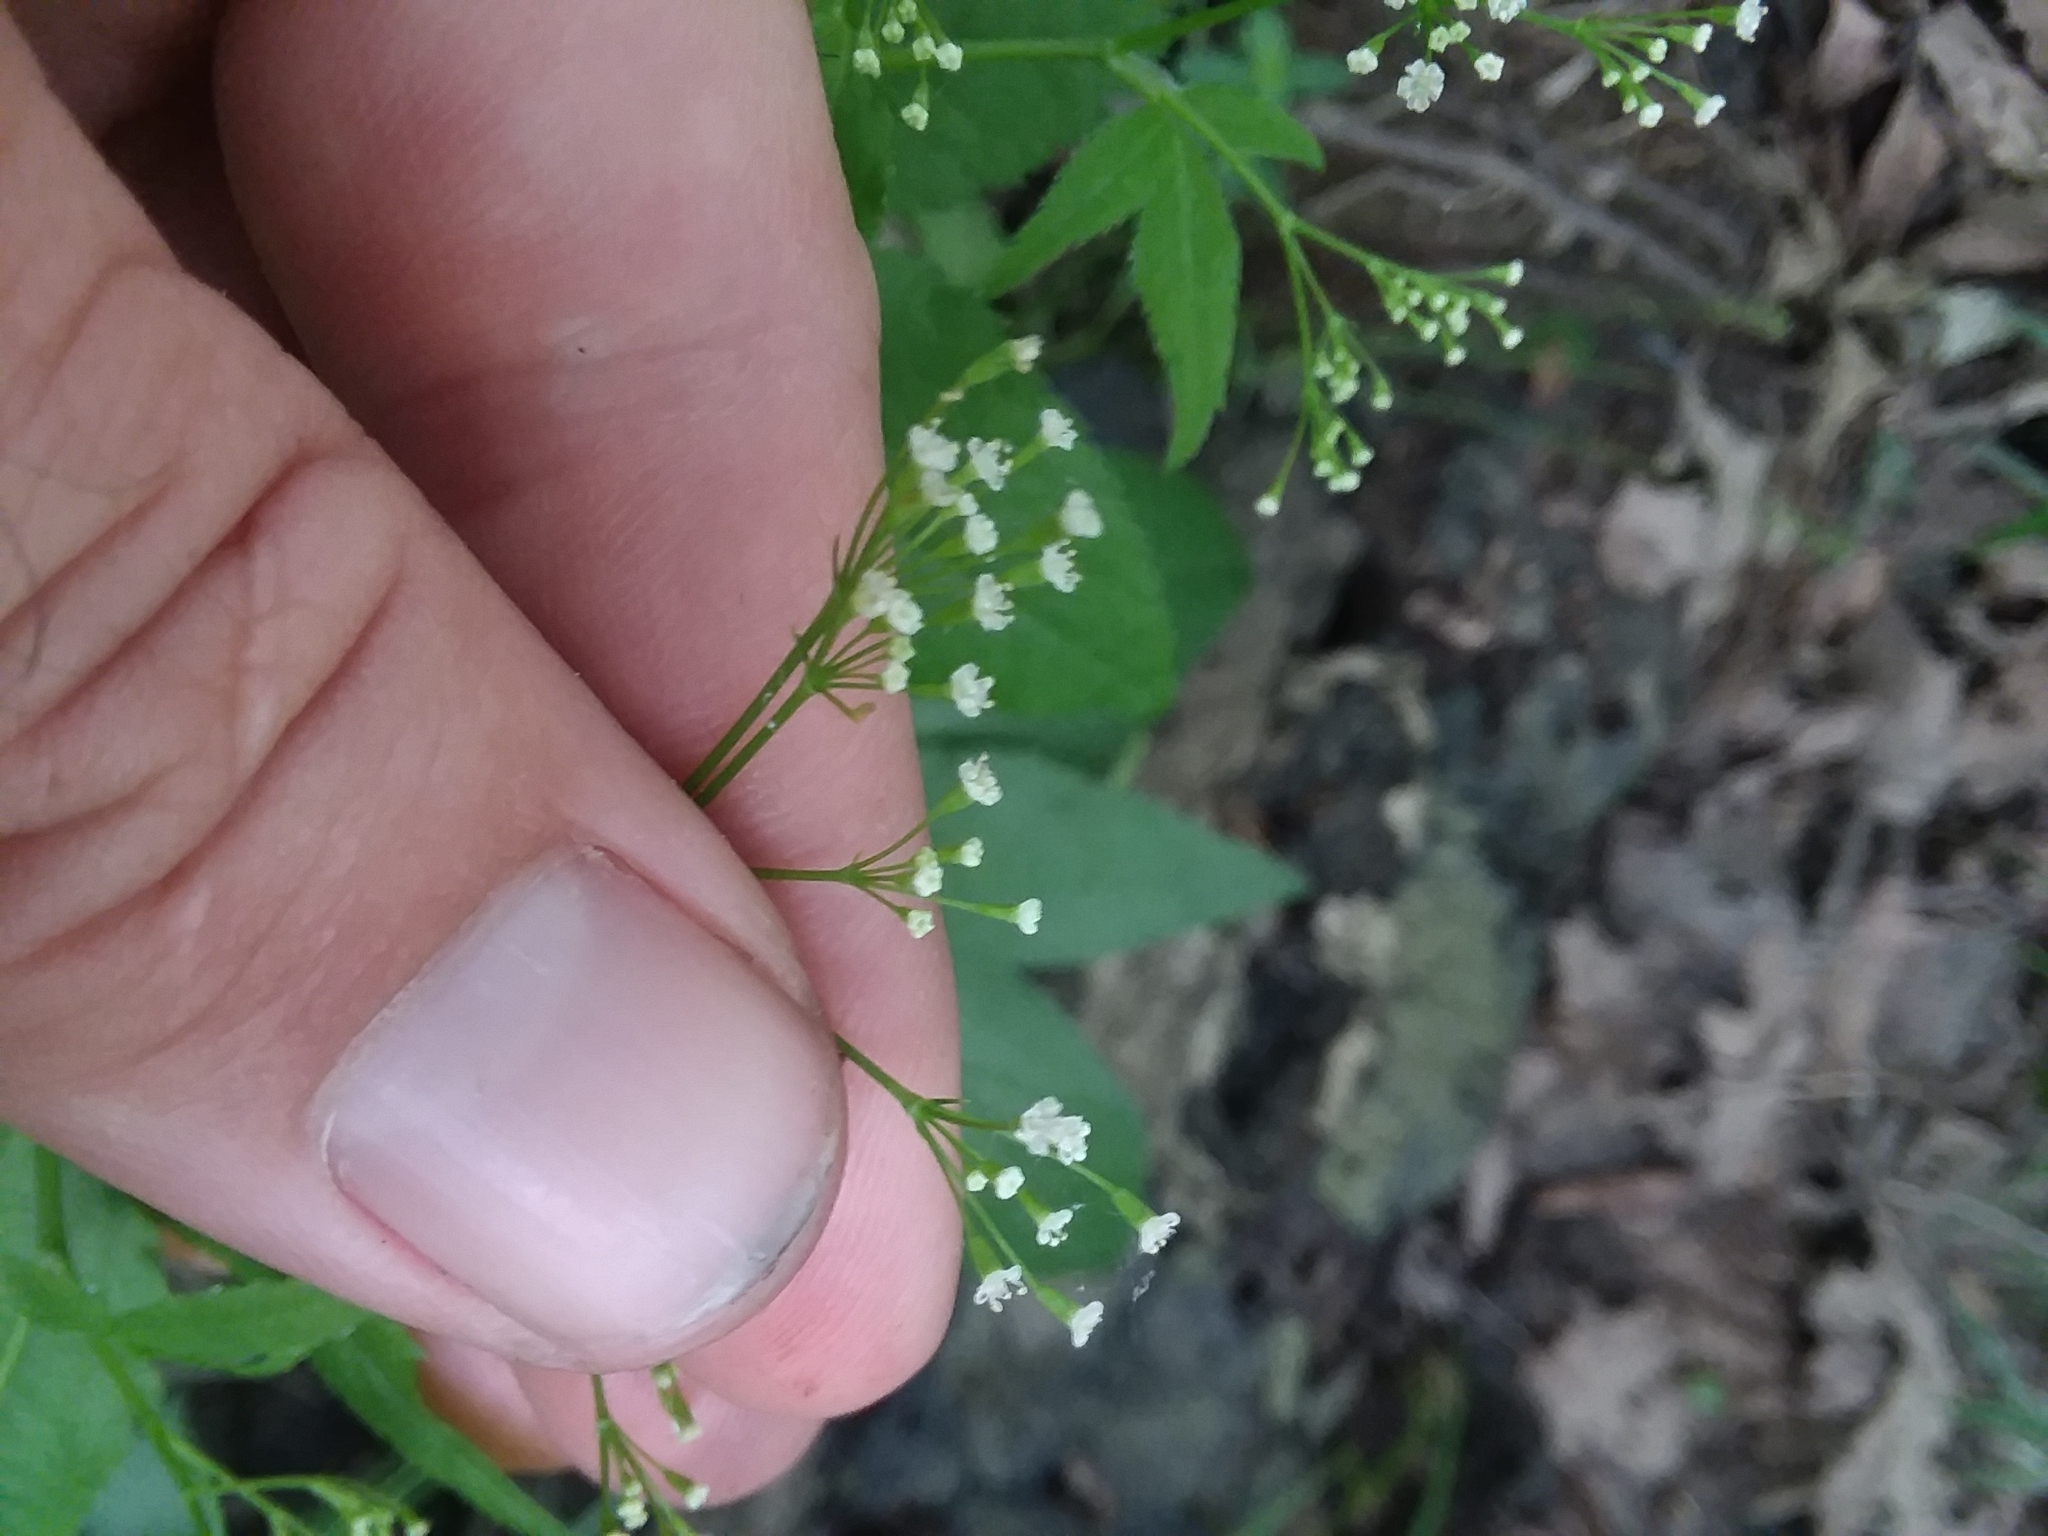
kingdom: Plantae
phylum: Tracheophyta
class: Magnoliopsida
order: Apiales
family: Apiaceae
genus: Cryptotaenia
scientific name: Cryptotaenia canadensis
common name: Honewort
